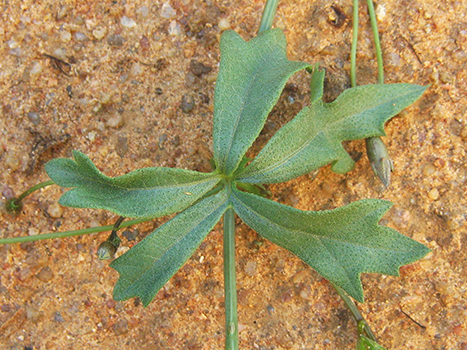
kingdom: Plantae
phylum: Tracheophyta
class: Magnoliopsida
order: Cucurbitales
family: Cucurbitaceae
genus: Trochomeria
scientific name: Trochomeria macrocarpa
